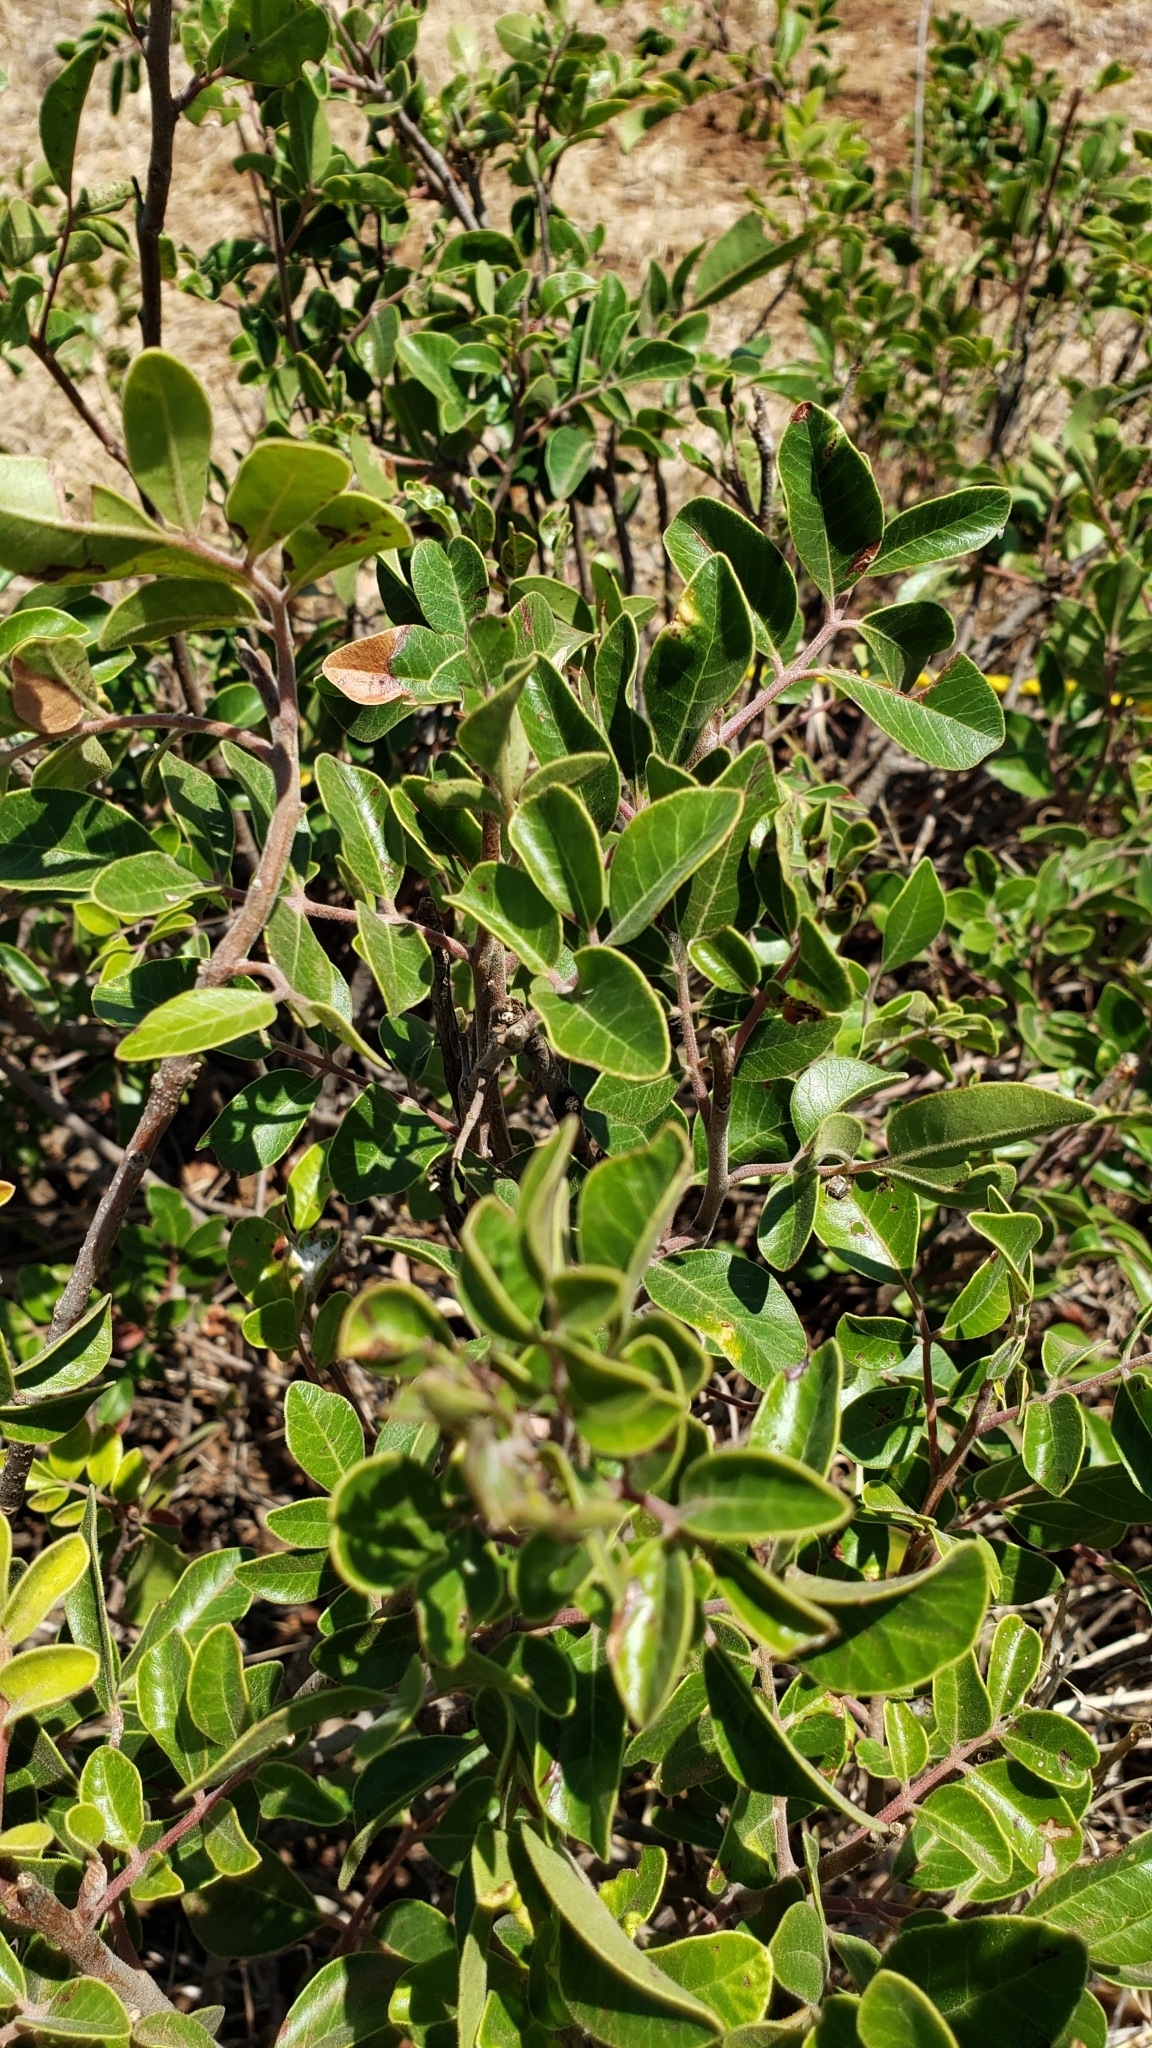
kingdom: Plantae
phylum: Tracheophyta
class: Magnoliopsida
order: Sapindales
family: Anacardiaceae
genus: Rhus
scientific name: Rhus virens
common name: Evergreen sumac
